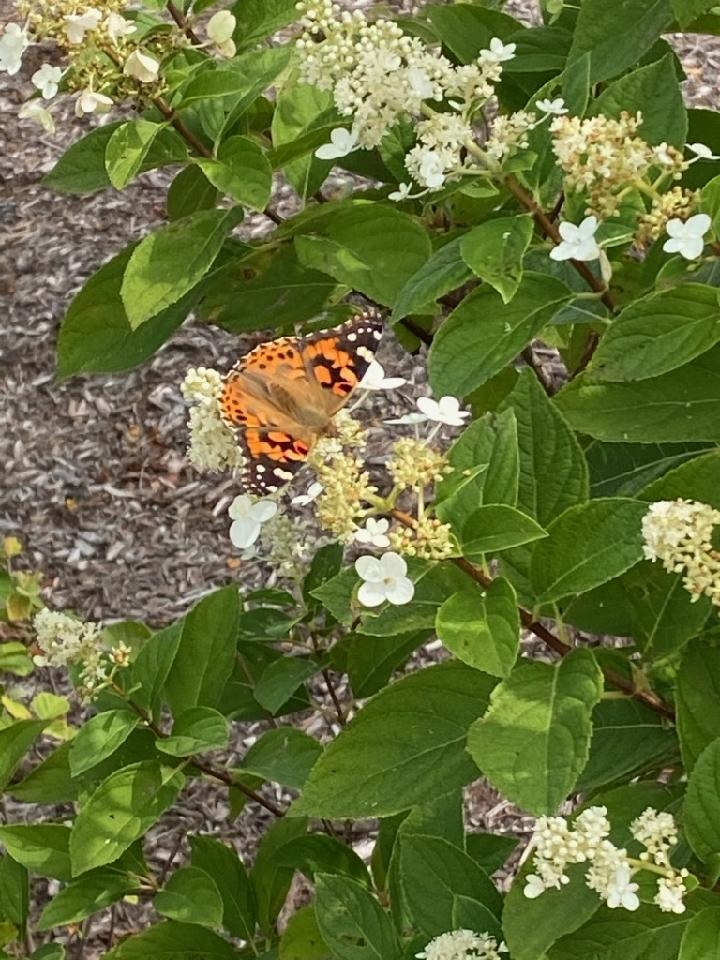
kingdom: Animalia
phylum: Arthropoda
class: Insecta
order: Lepidoptera
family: Nymphalidae
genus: Vanessa
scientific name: Vanessa cardui
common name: Painted lady
